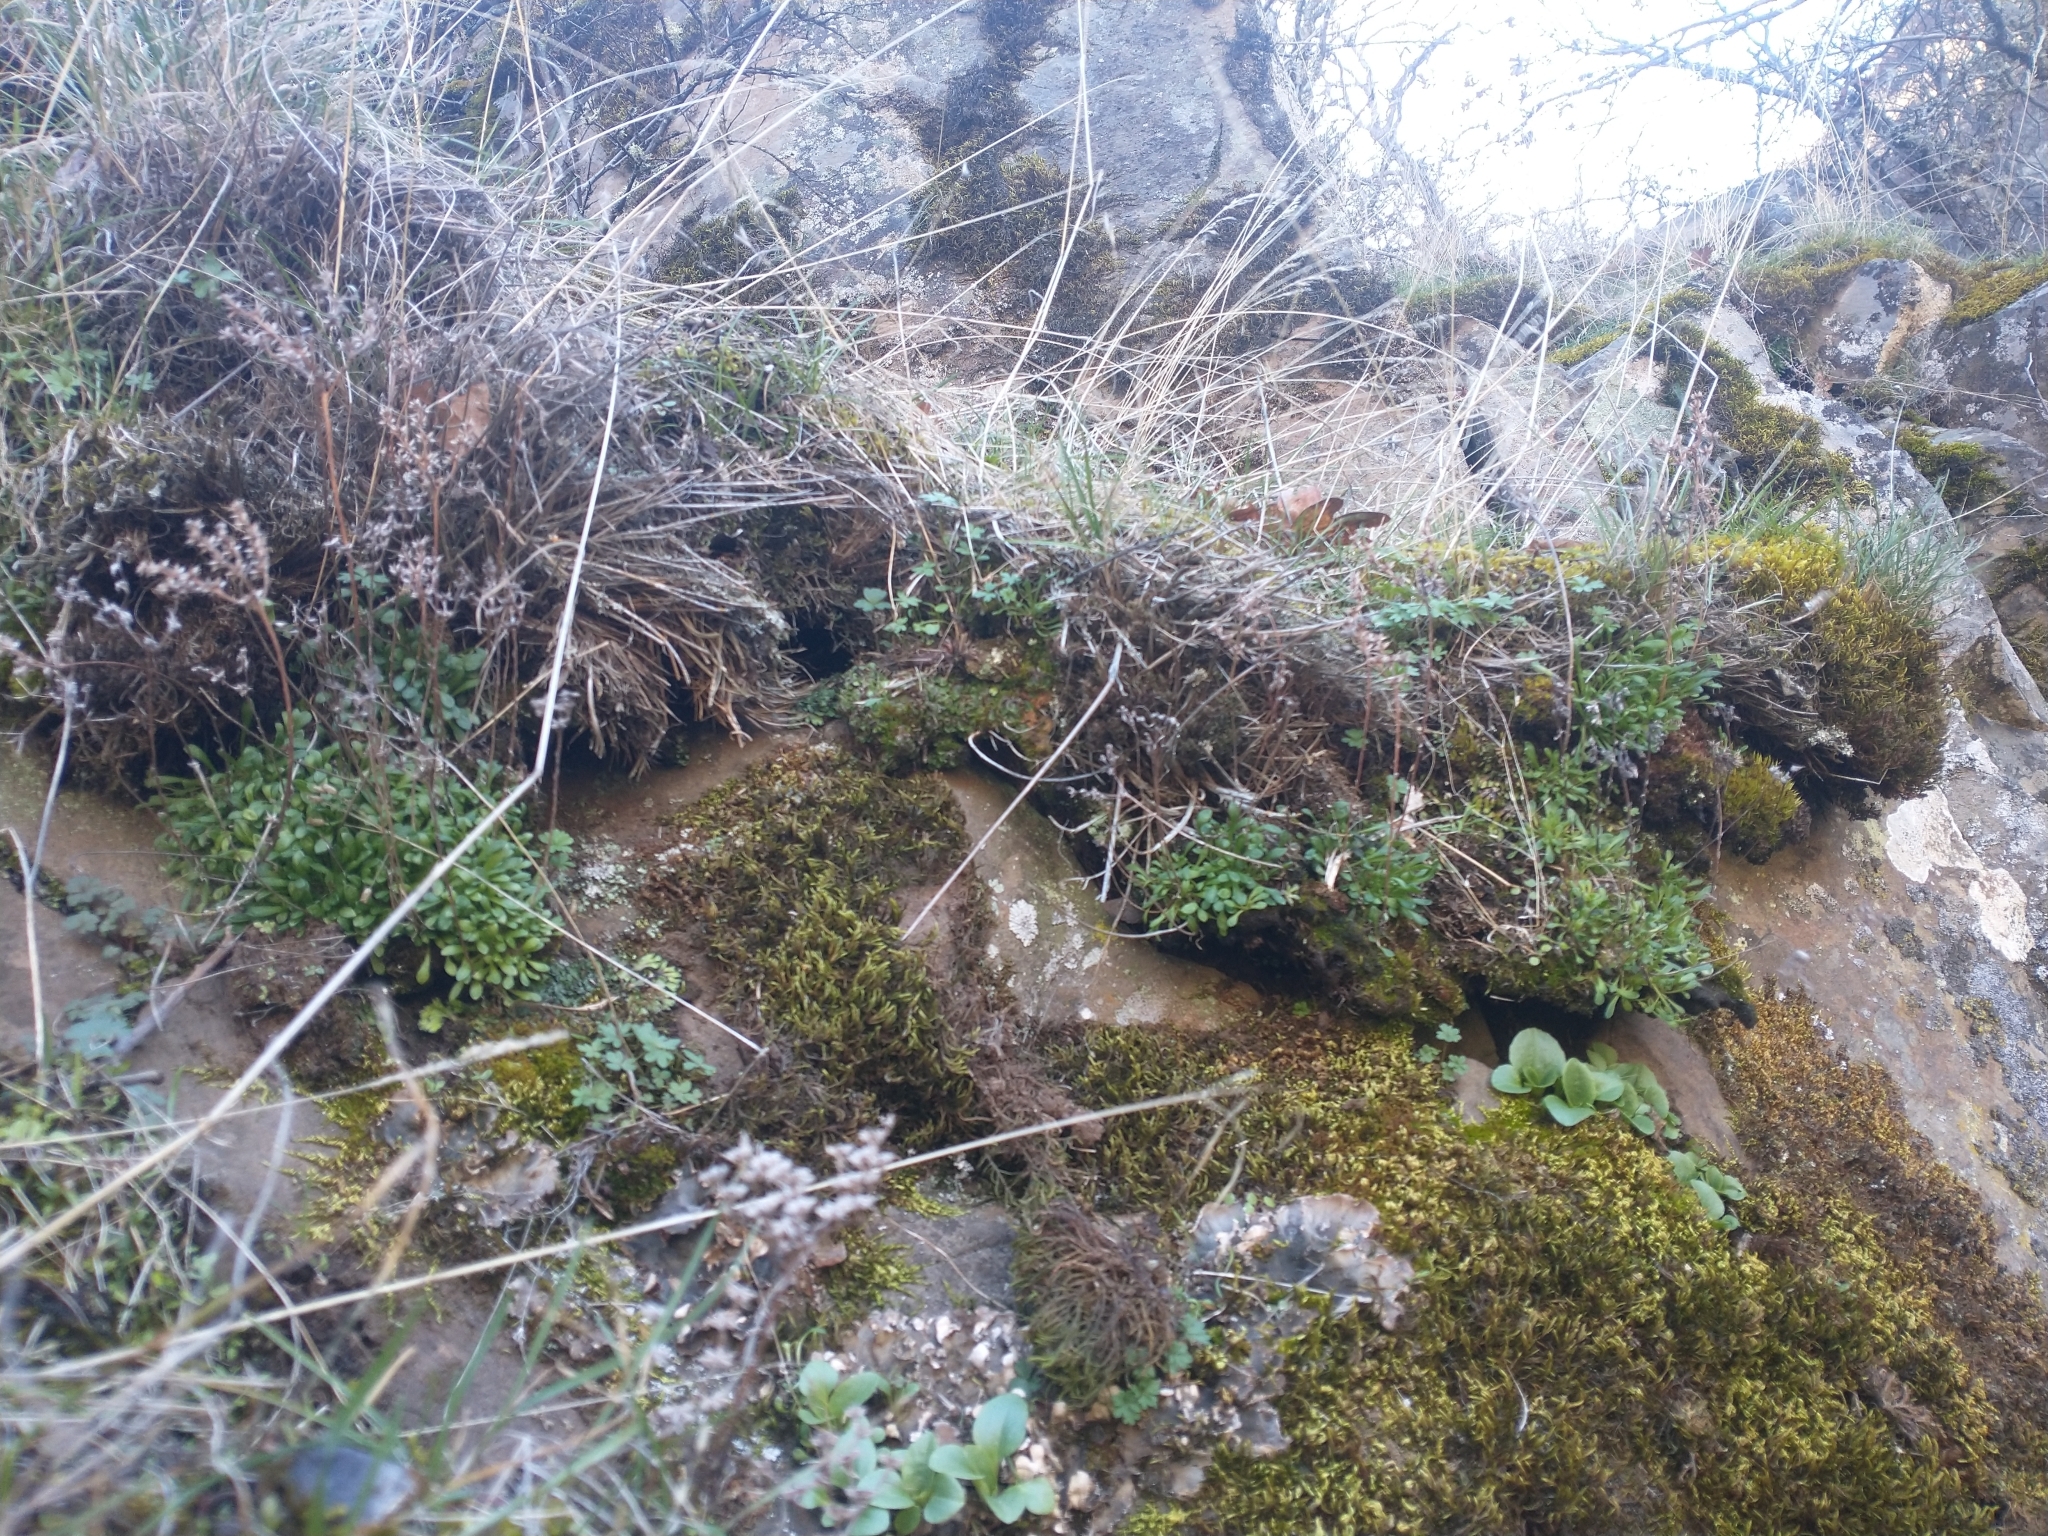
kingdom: Plantae
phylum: Tracheophyta
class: Magnoliopsida
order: Saxifragales
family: Crassulaceae
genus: Sedum
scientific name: Sedum leibergii
